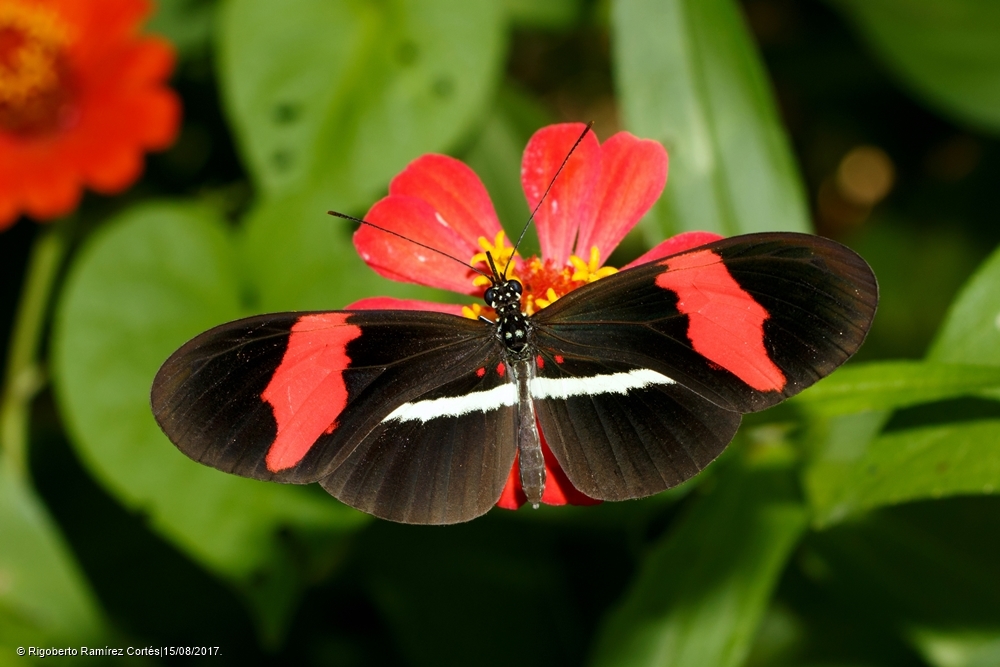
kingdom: Animalia
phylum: Arthropoda
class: Insecta
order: Lepidoptera
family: Nymphalidae
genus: Heliconius
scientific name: Heliconius erato
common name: Common patch longwing
